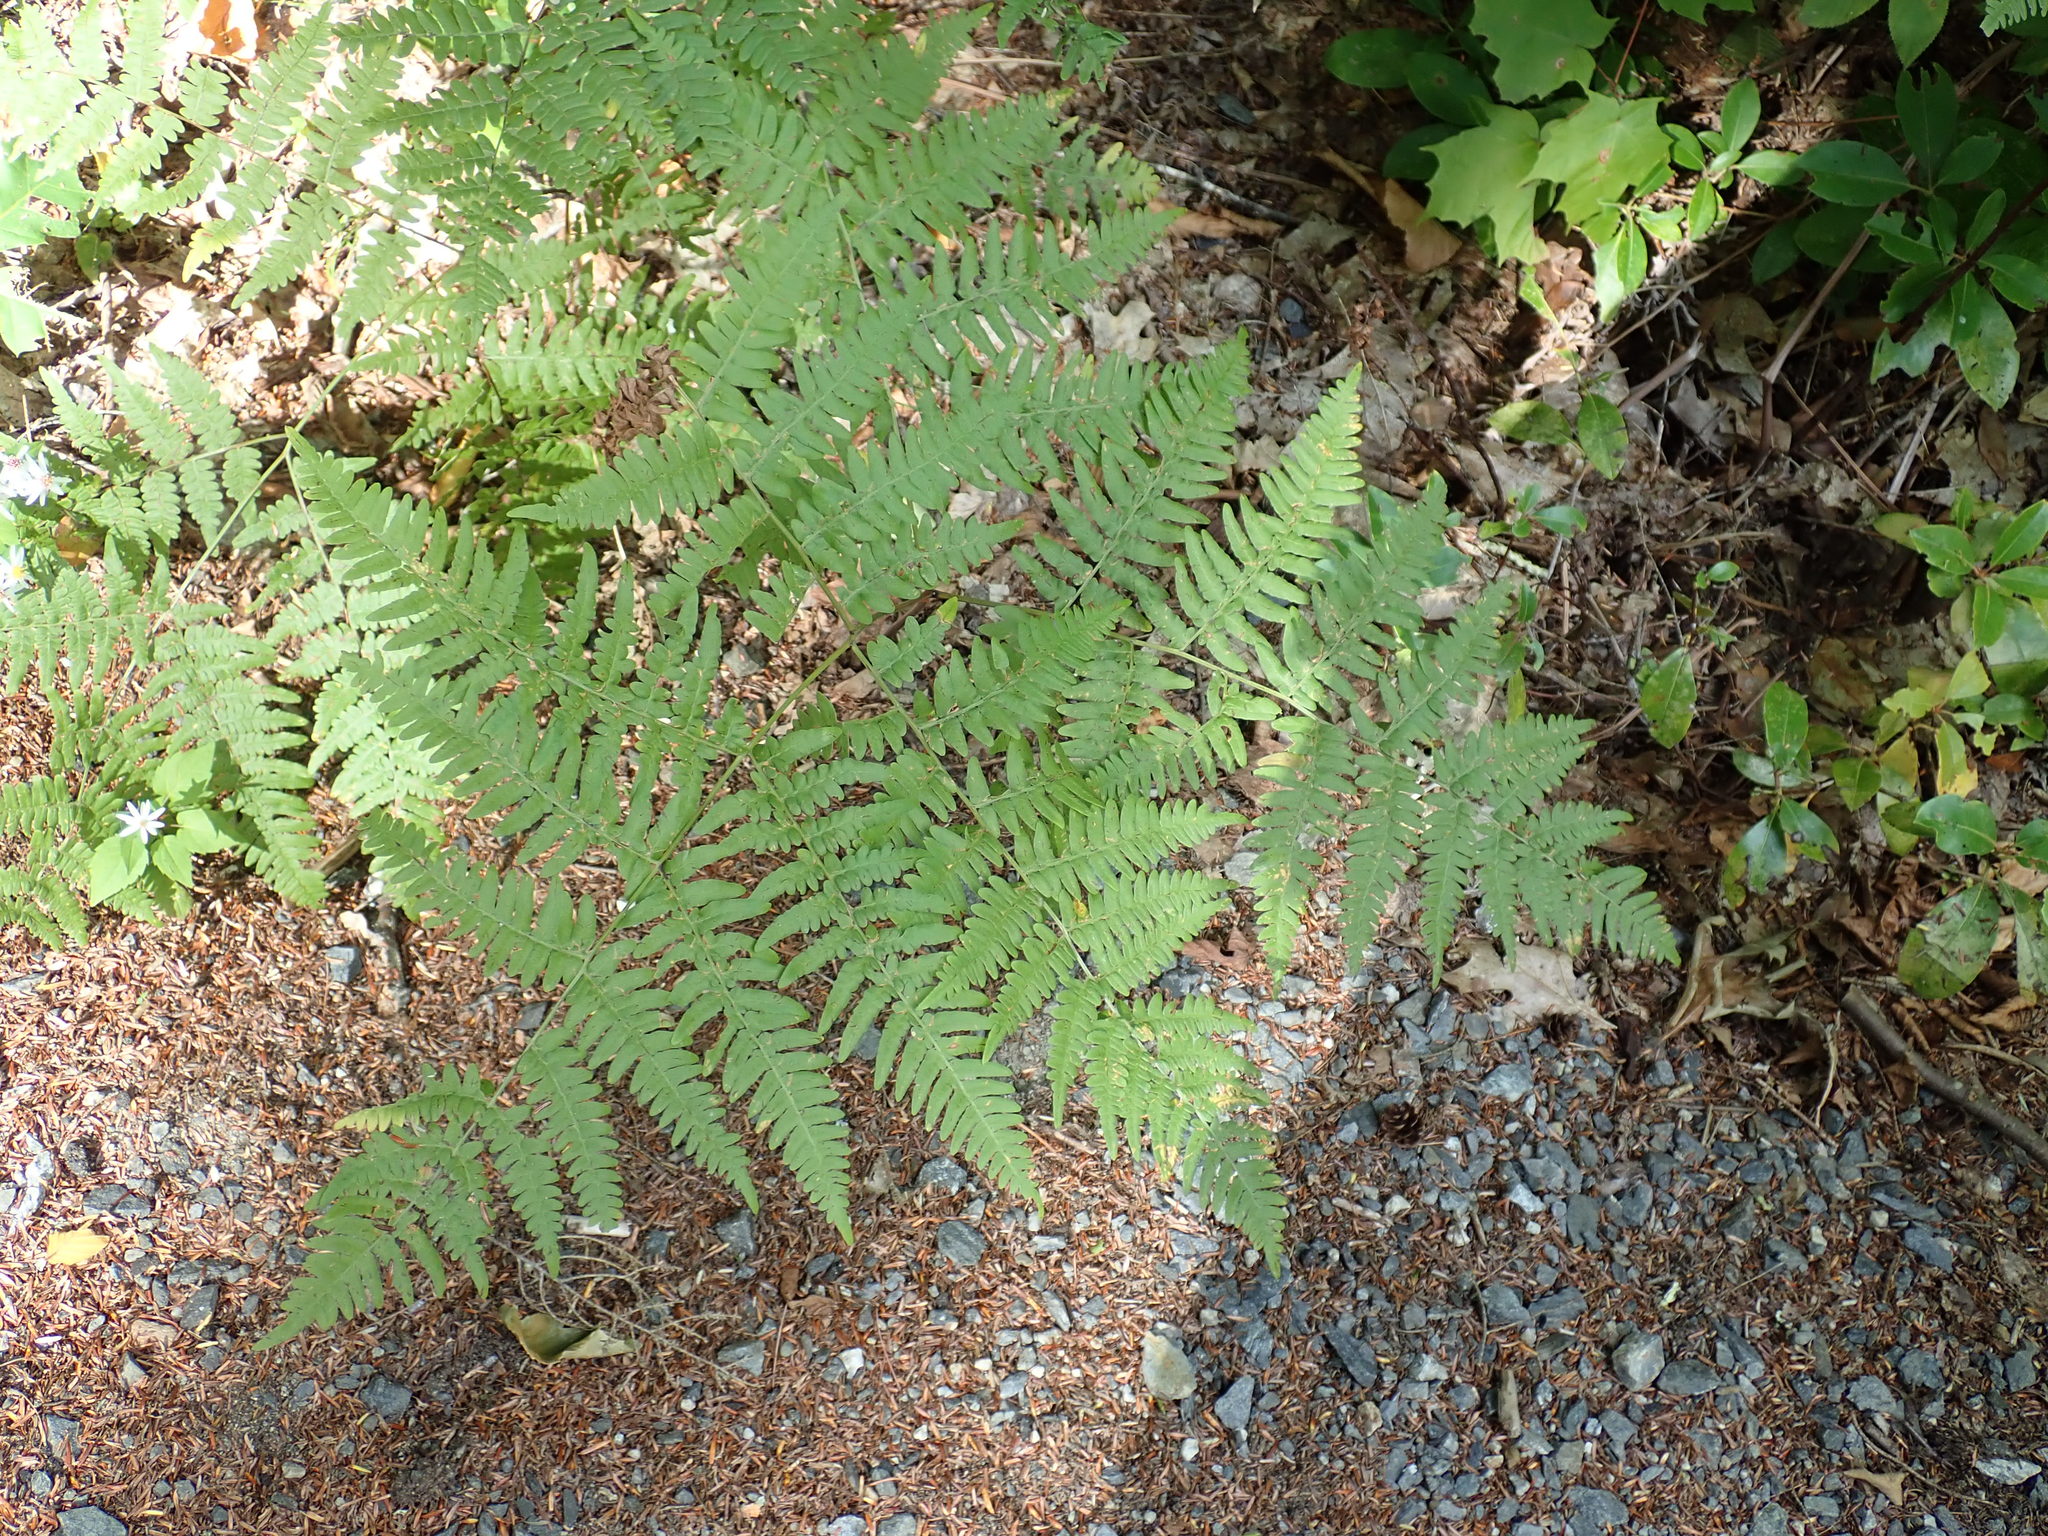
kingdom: Plantae
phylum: Tracheophyta
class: Polypodiopsida
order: Polypodiales
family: Dennstaedtiaceae
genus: Pteridium
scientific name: Pteridium aquilinum
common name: Bracken
